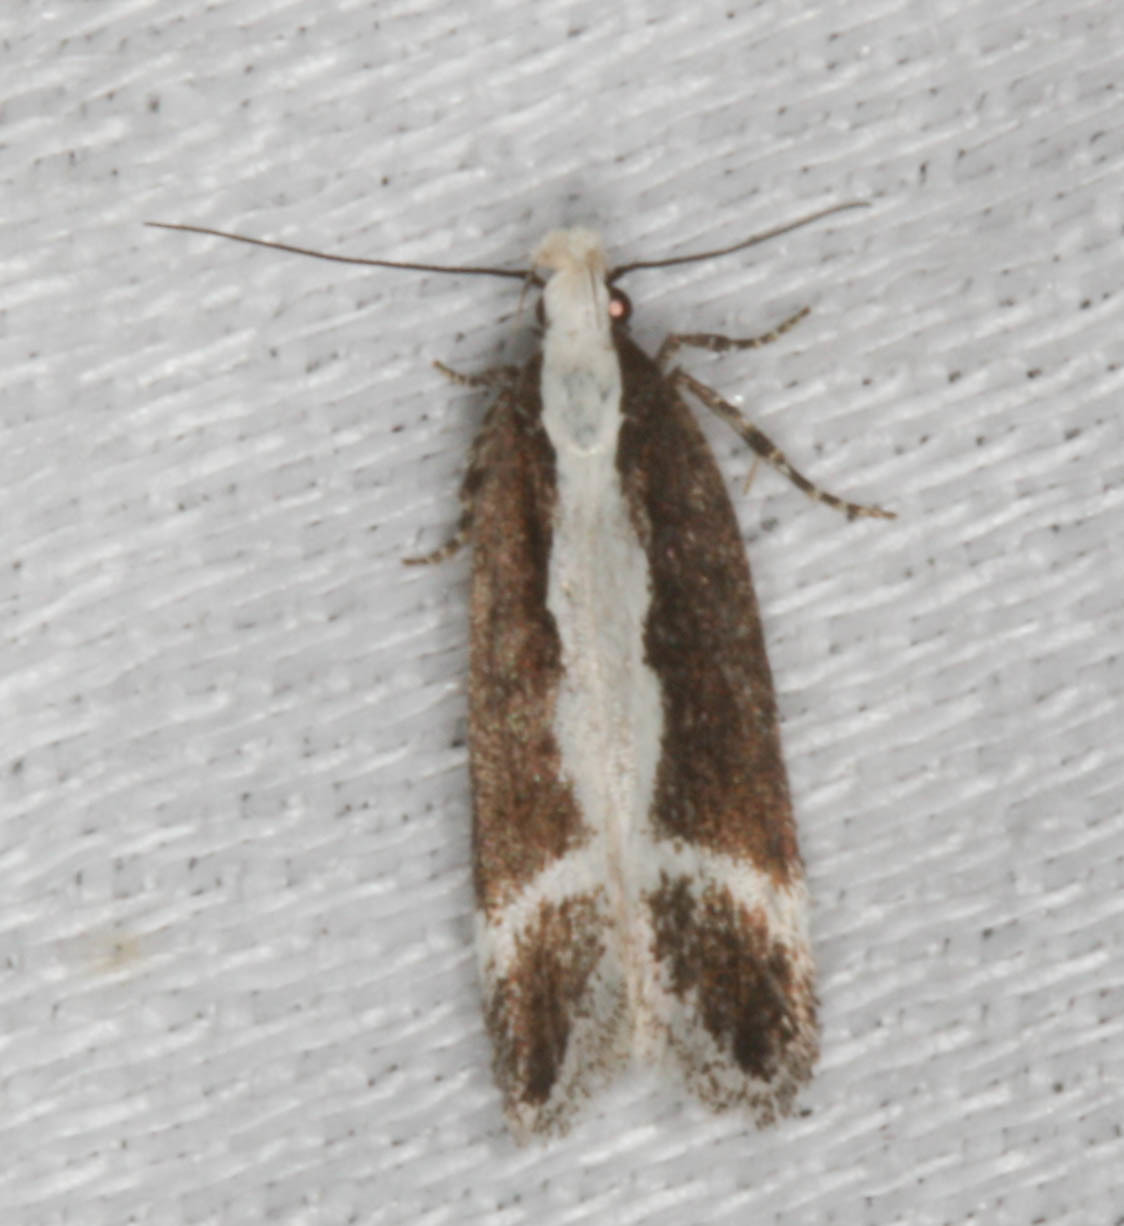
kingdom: Animalia
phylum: Arthropoda
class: Insecta
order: Lepidoptera
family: Gelechiidae
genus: Aroga
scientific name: Aroga unifasciella
